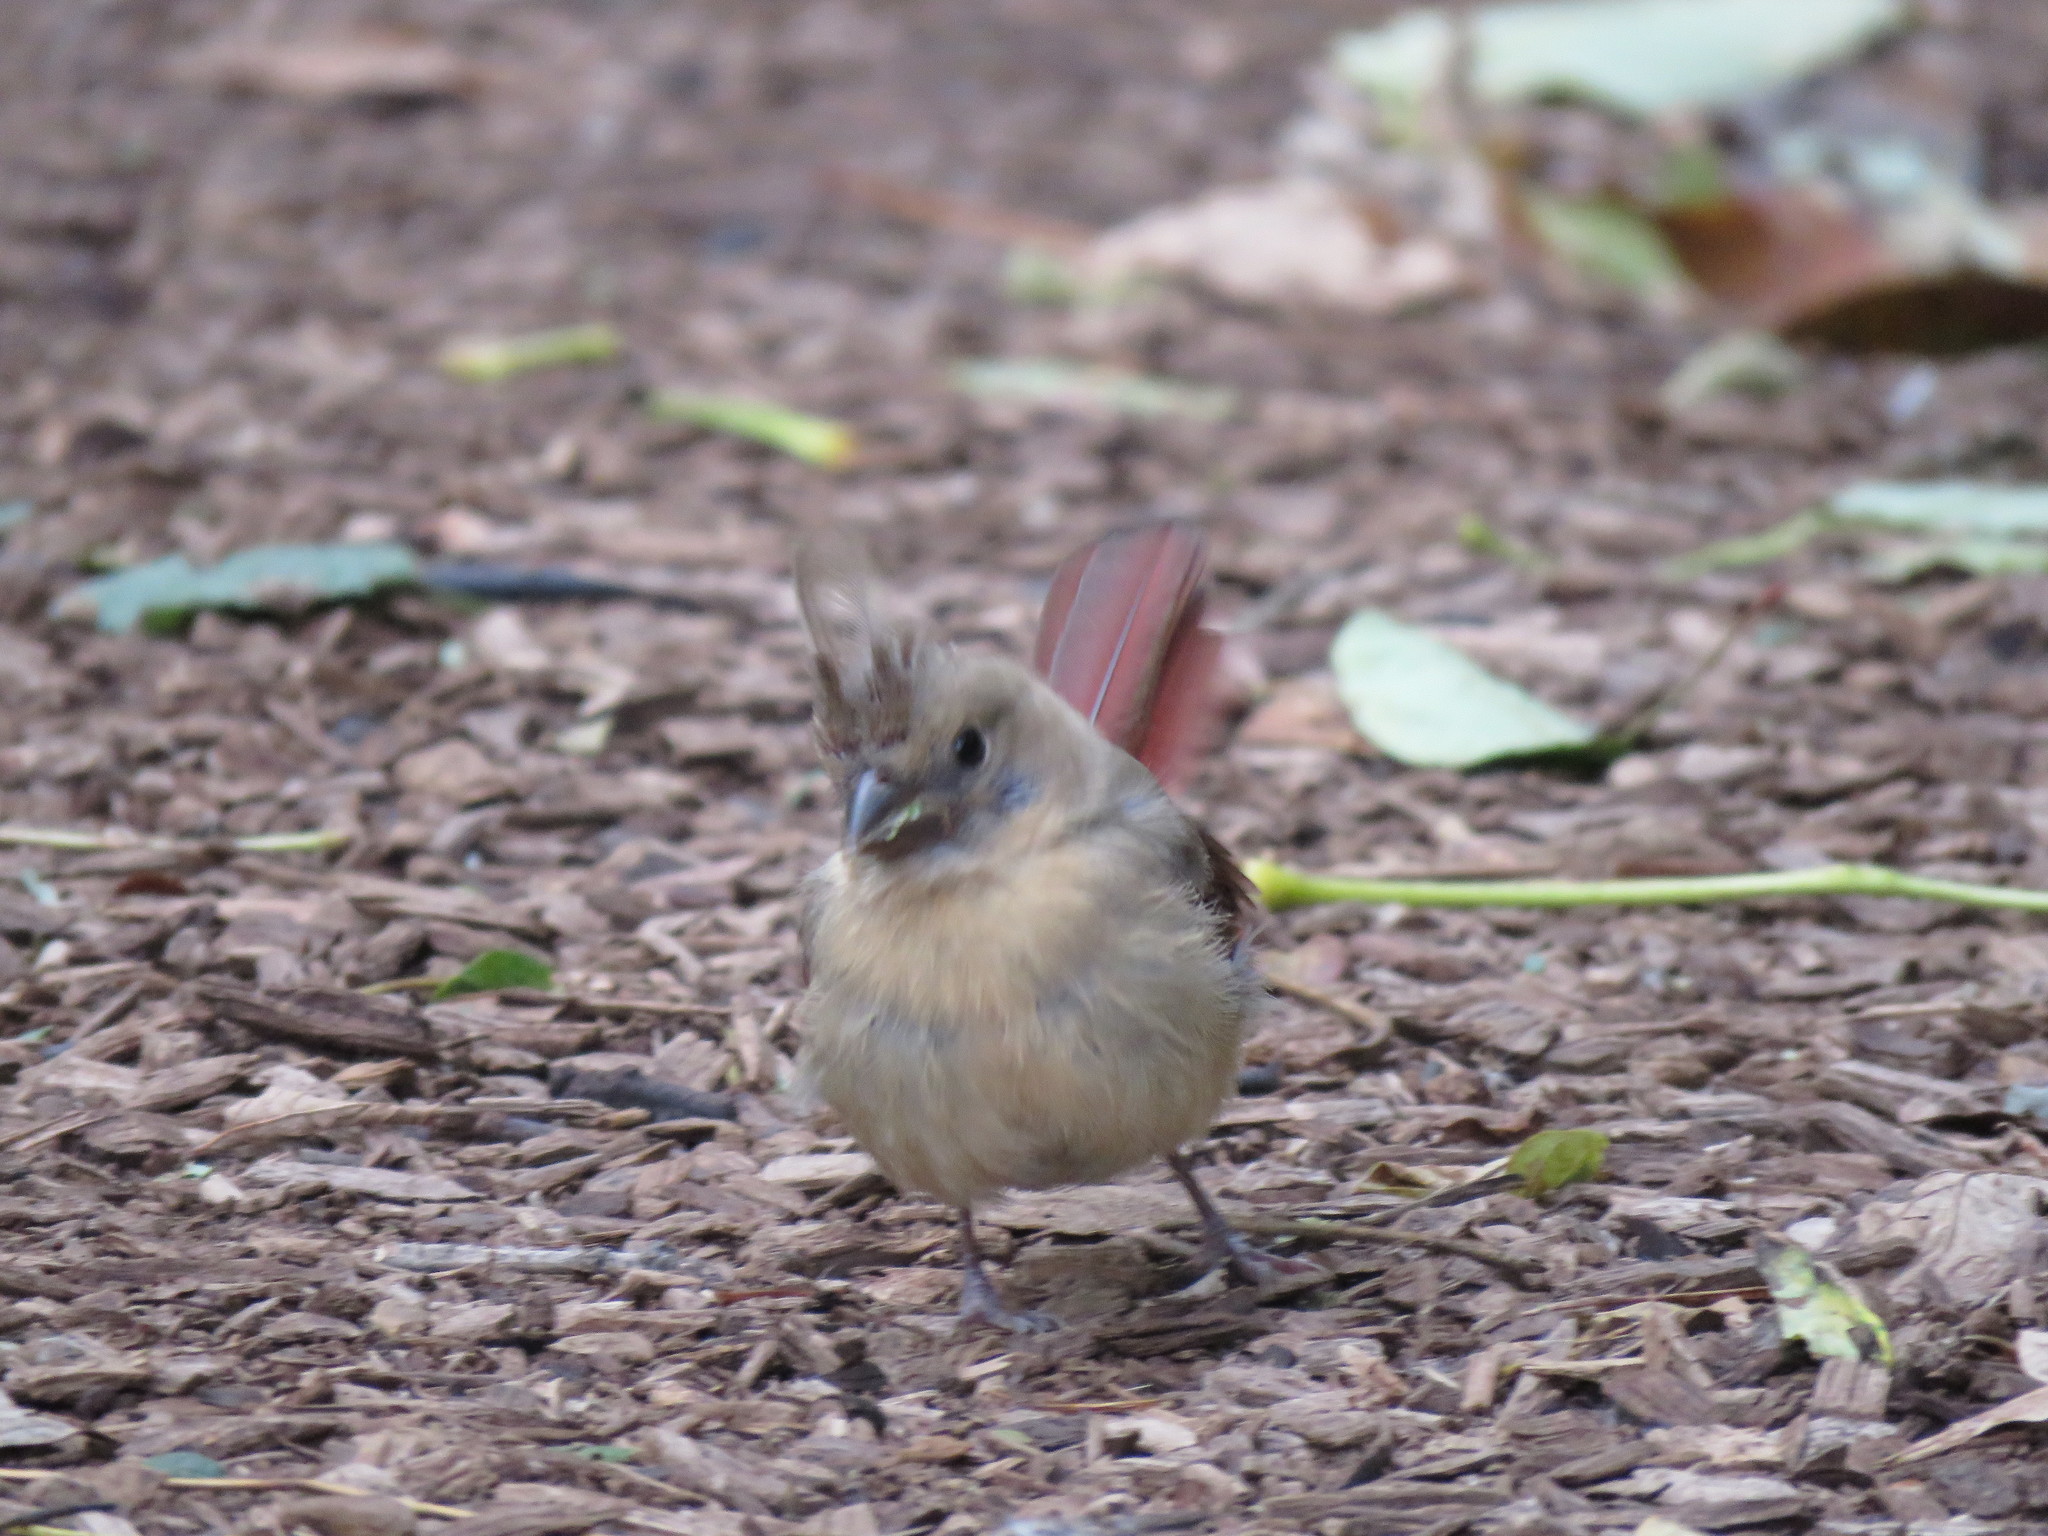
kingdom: Animalia
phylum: Chordata
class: Aves
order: Passeriformes
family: Cardinalidae
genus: Cardinalis
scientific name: Cardinalis cardinalis
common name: Northern cardinal
